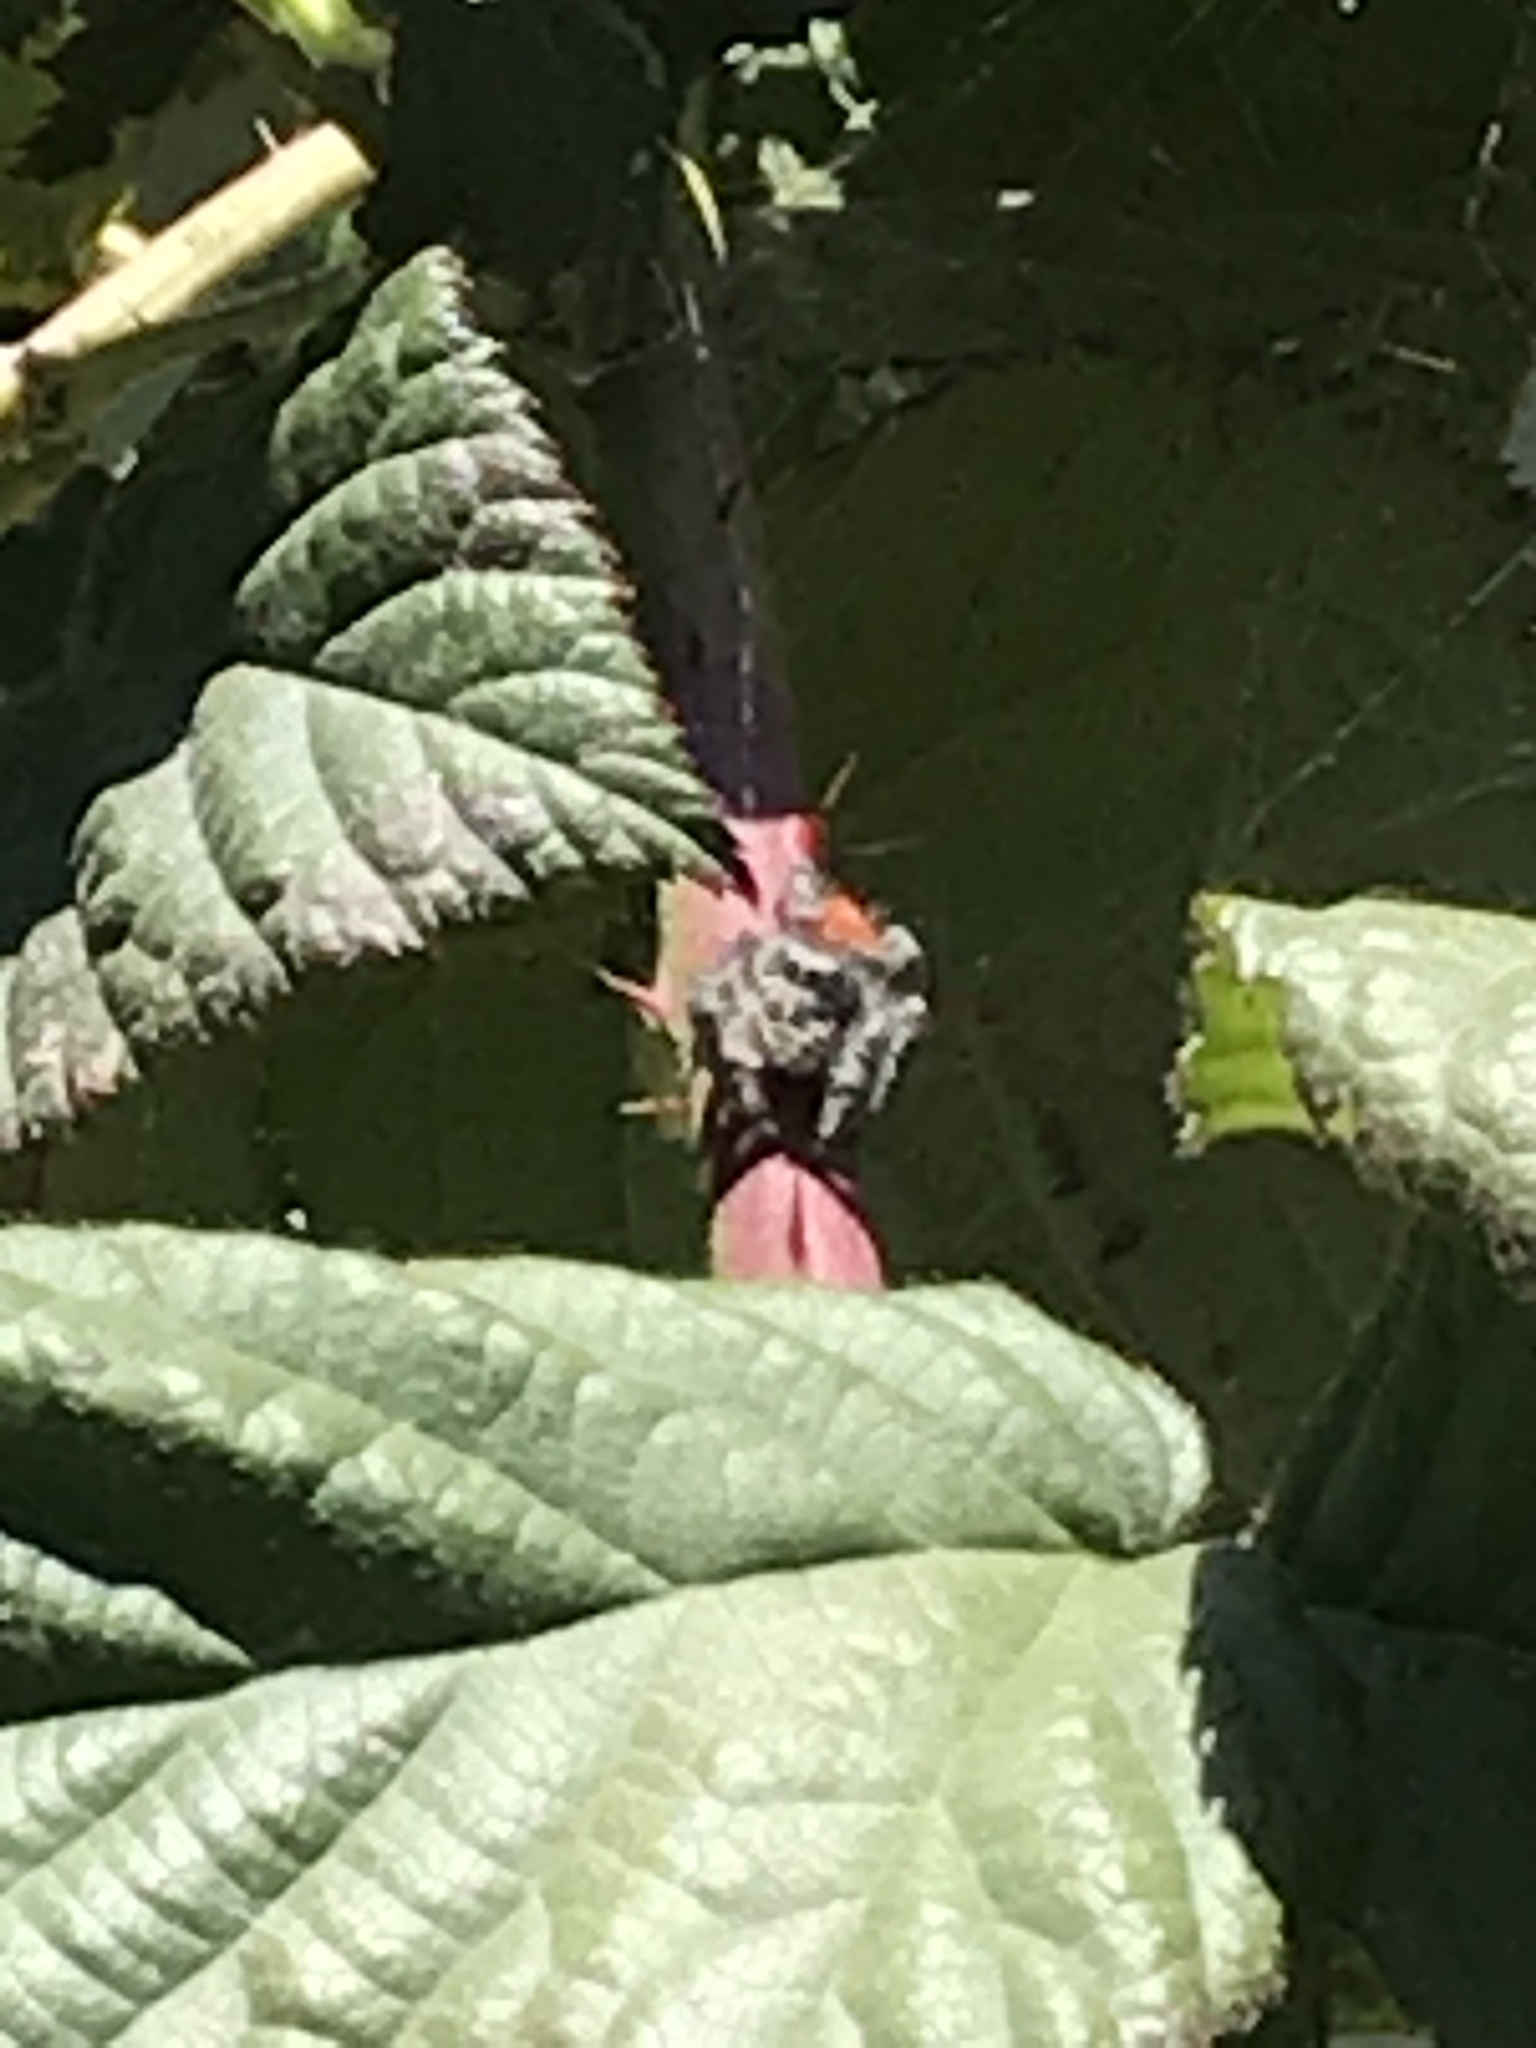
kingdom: Animalia
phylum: Arthropoda
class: Arachnida
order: Araneae
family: Salticidae
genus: Phidippus
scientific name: Phidippus adumbratus
